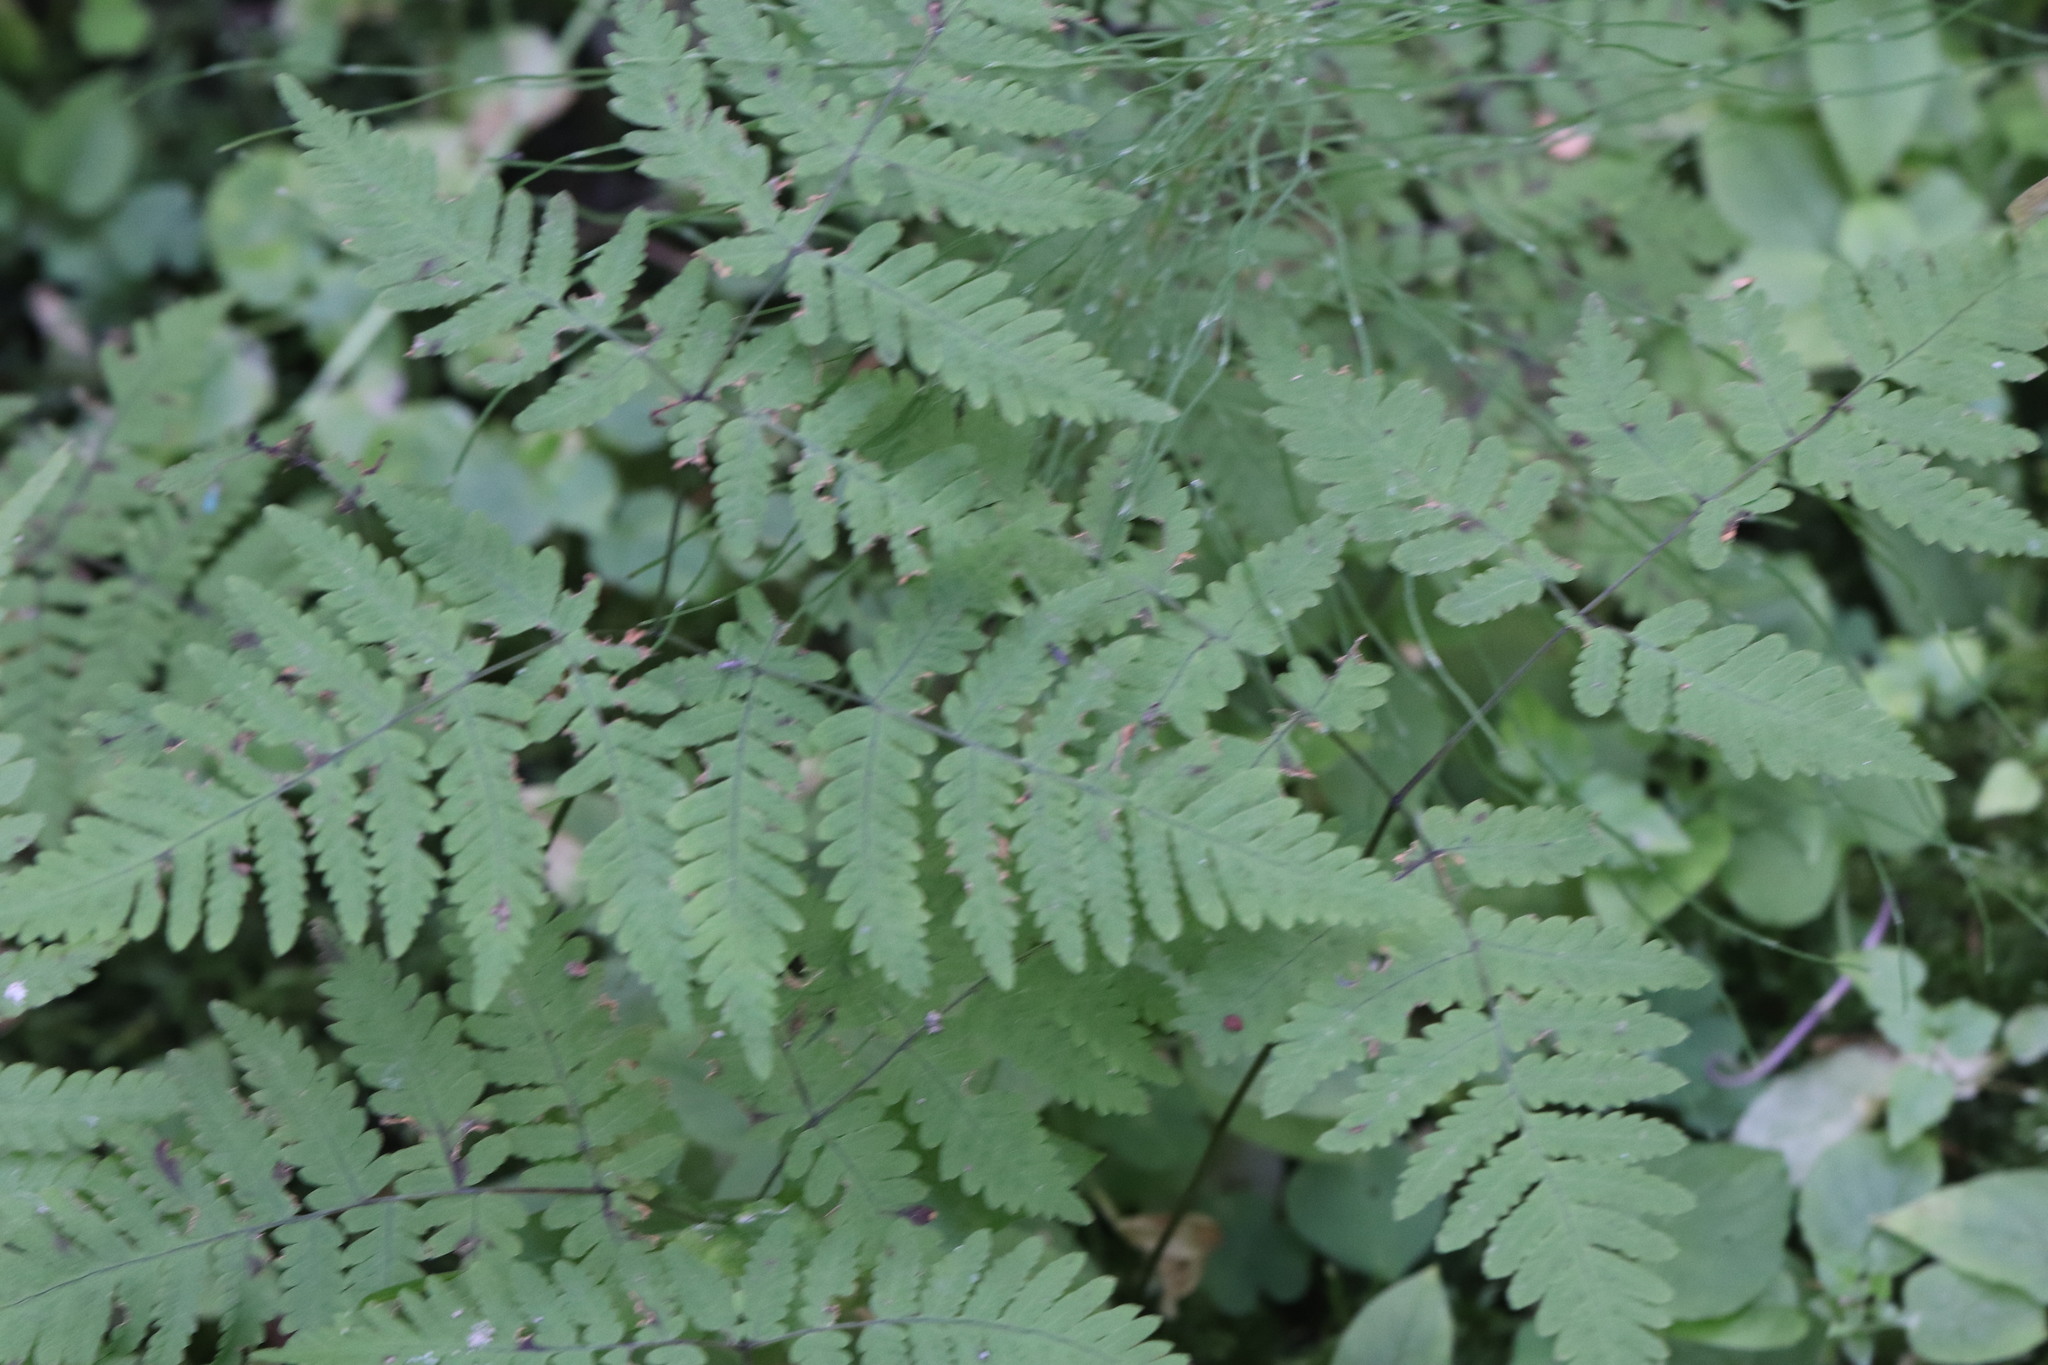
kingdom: Plantae
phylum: Tracheophyta
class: Polypodiopsida
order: Polypodiales
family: Cystopteridaceae
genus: Gymnocarpium
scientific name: Gymnocarpium dryopteris
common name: Oak fern
